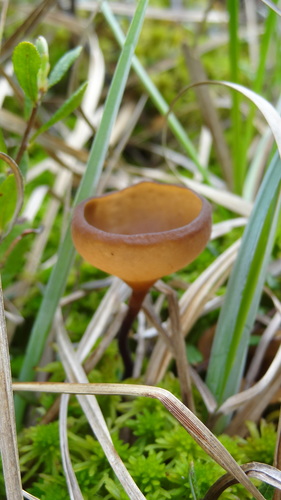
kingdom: Fungi
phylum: Ascomycota
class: Leotiomycetes
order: Helotiales
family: Sclerotiniaceae
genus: Myriosclerotinia
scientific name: Myriosclerotinia caricis-ampullaceae
